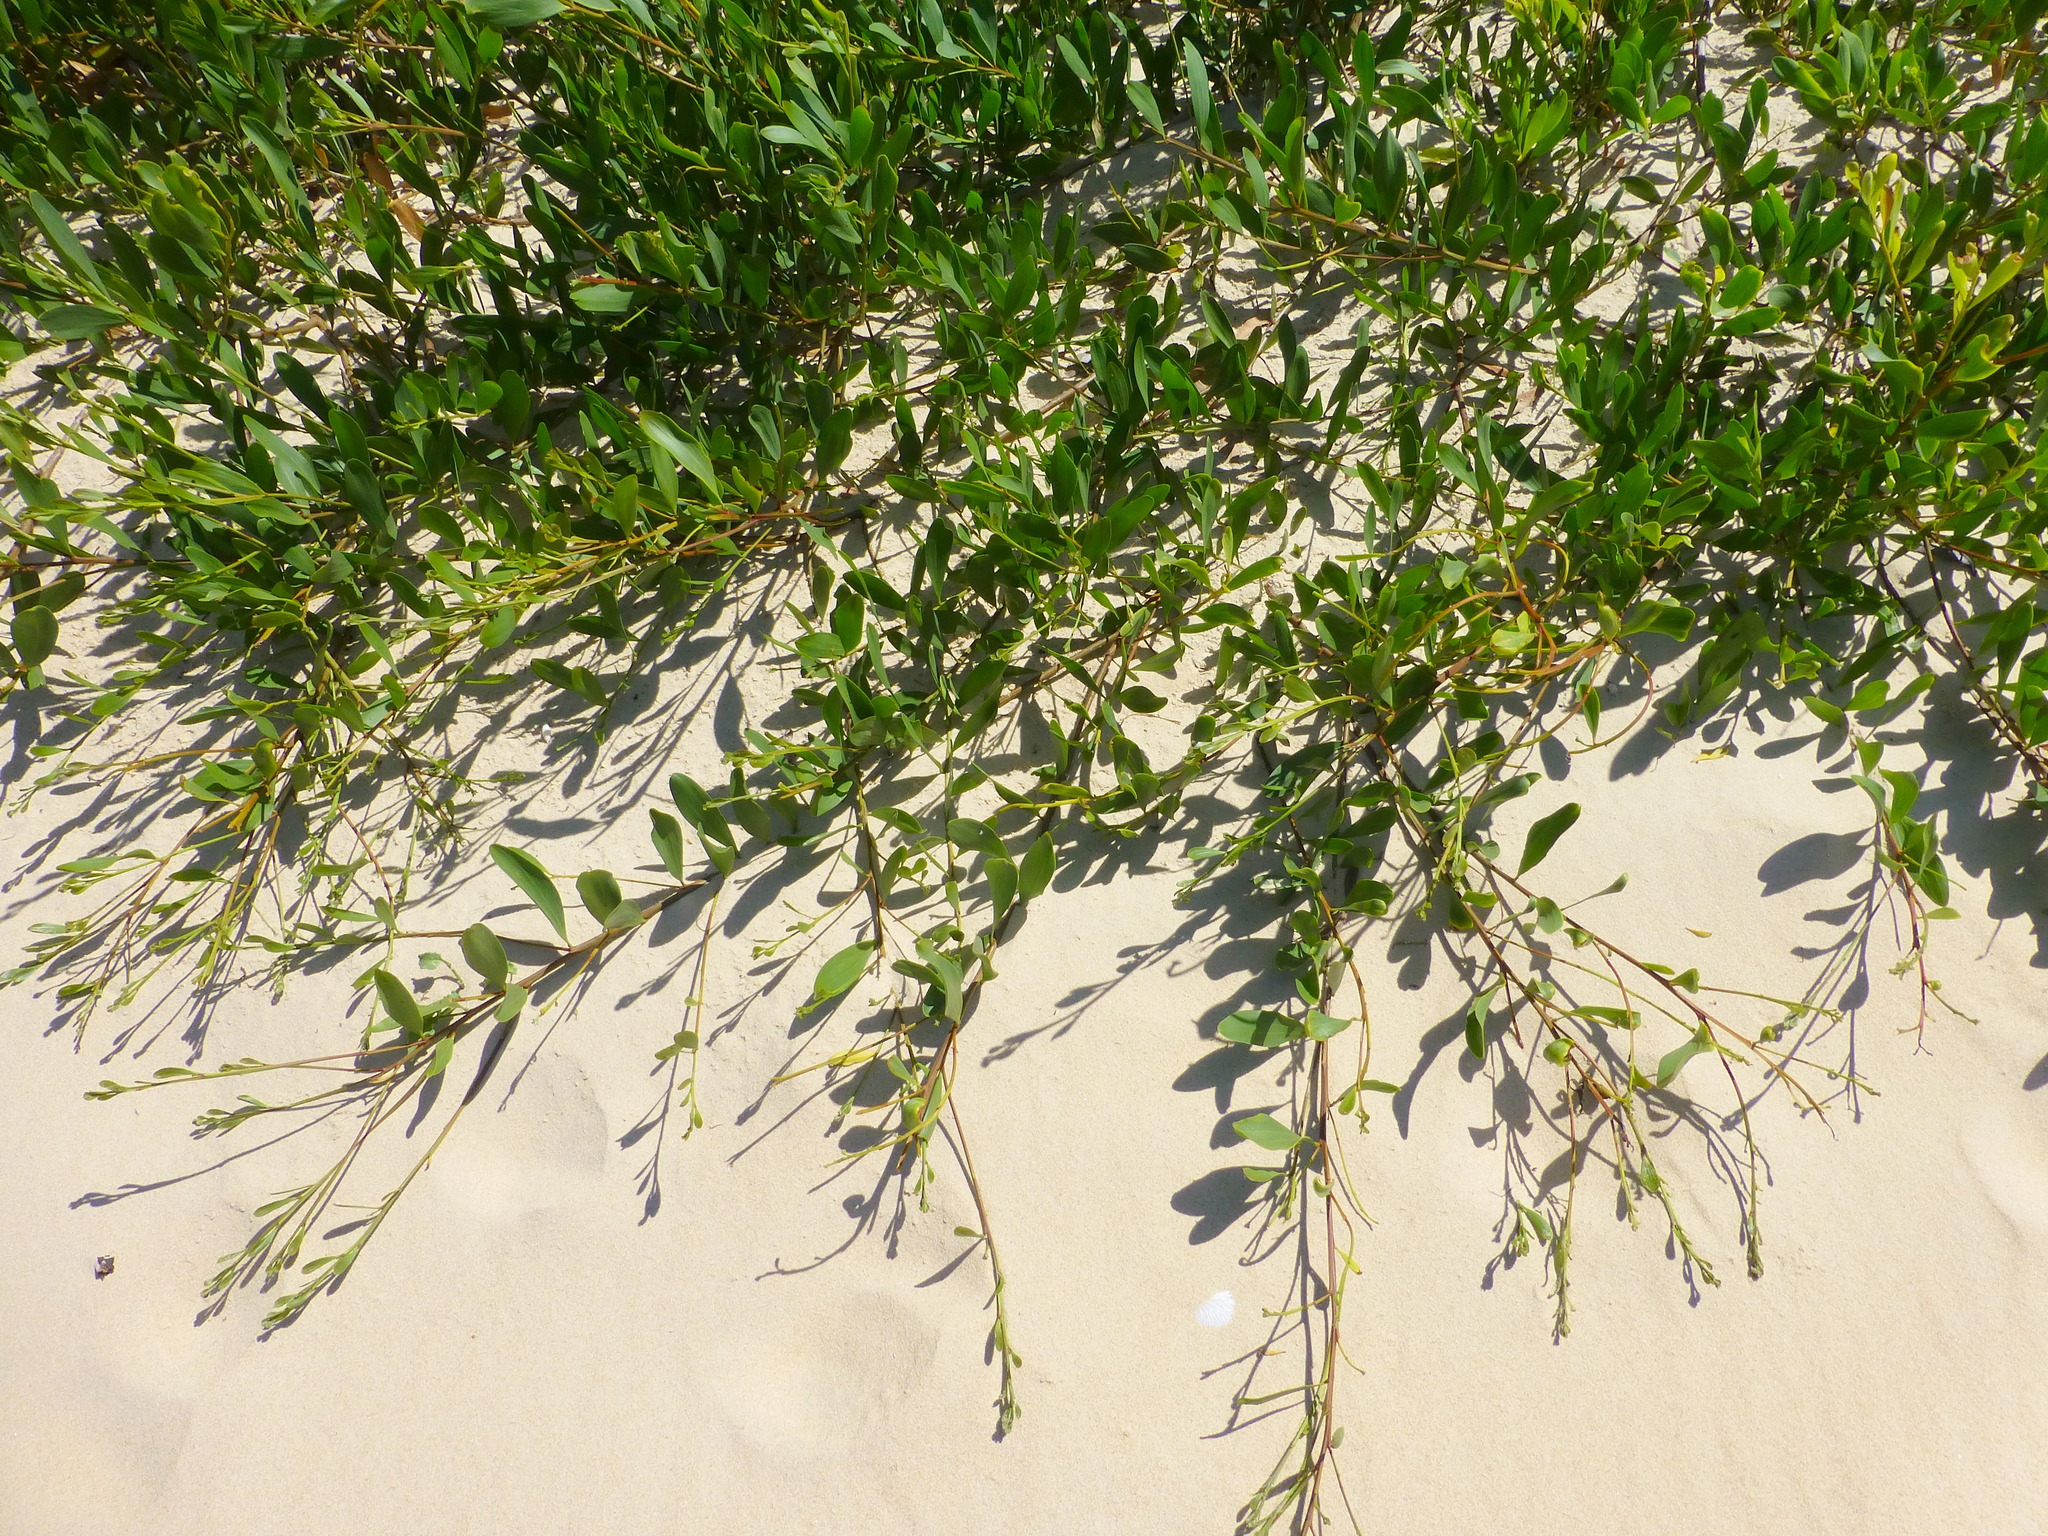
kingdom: Plantae
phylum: Tracheophyta
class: Magnoliopsida
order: Fabales
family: Fabaceae
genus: Acacia
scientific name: Acacia longifolia
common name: Sydney golden wattle
